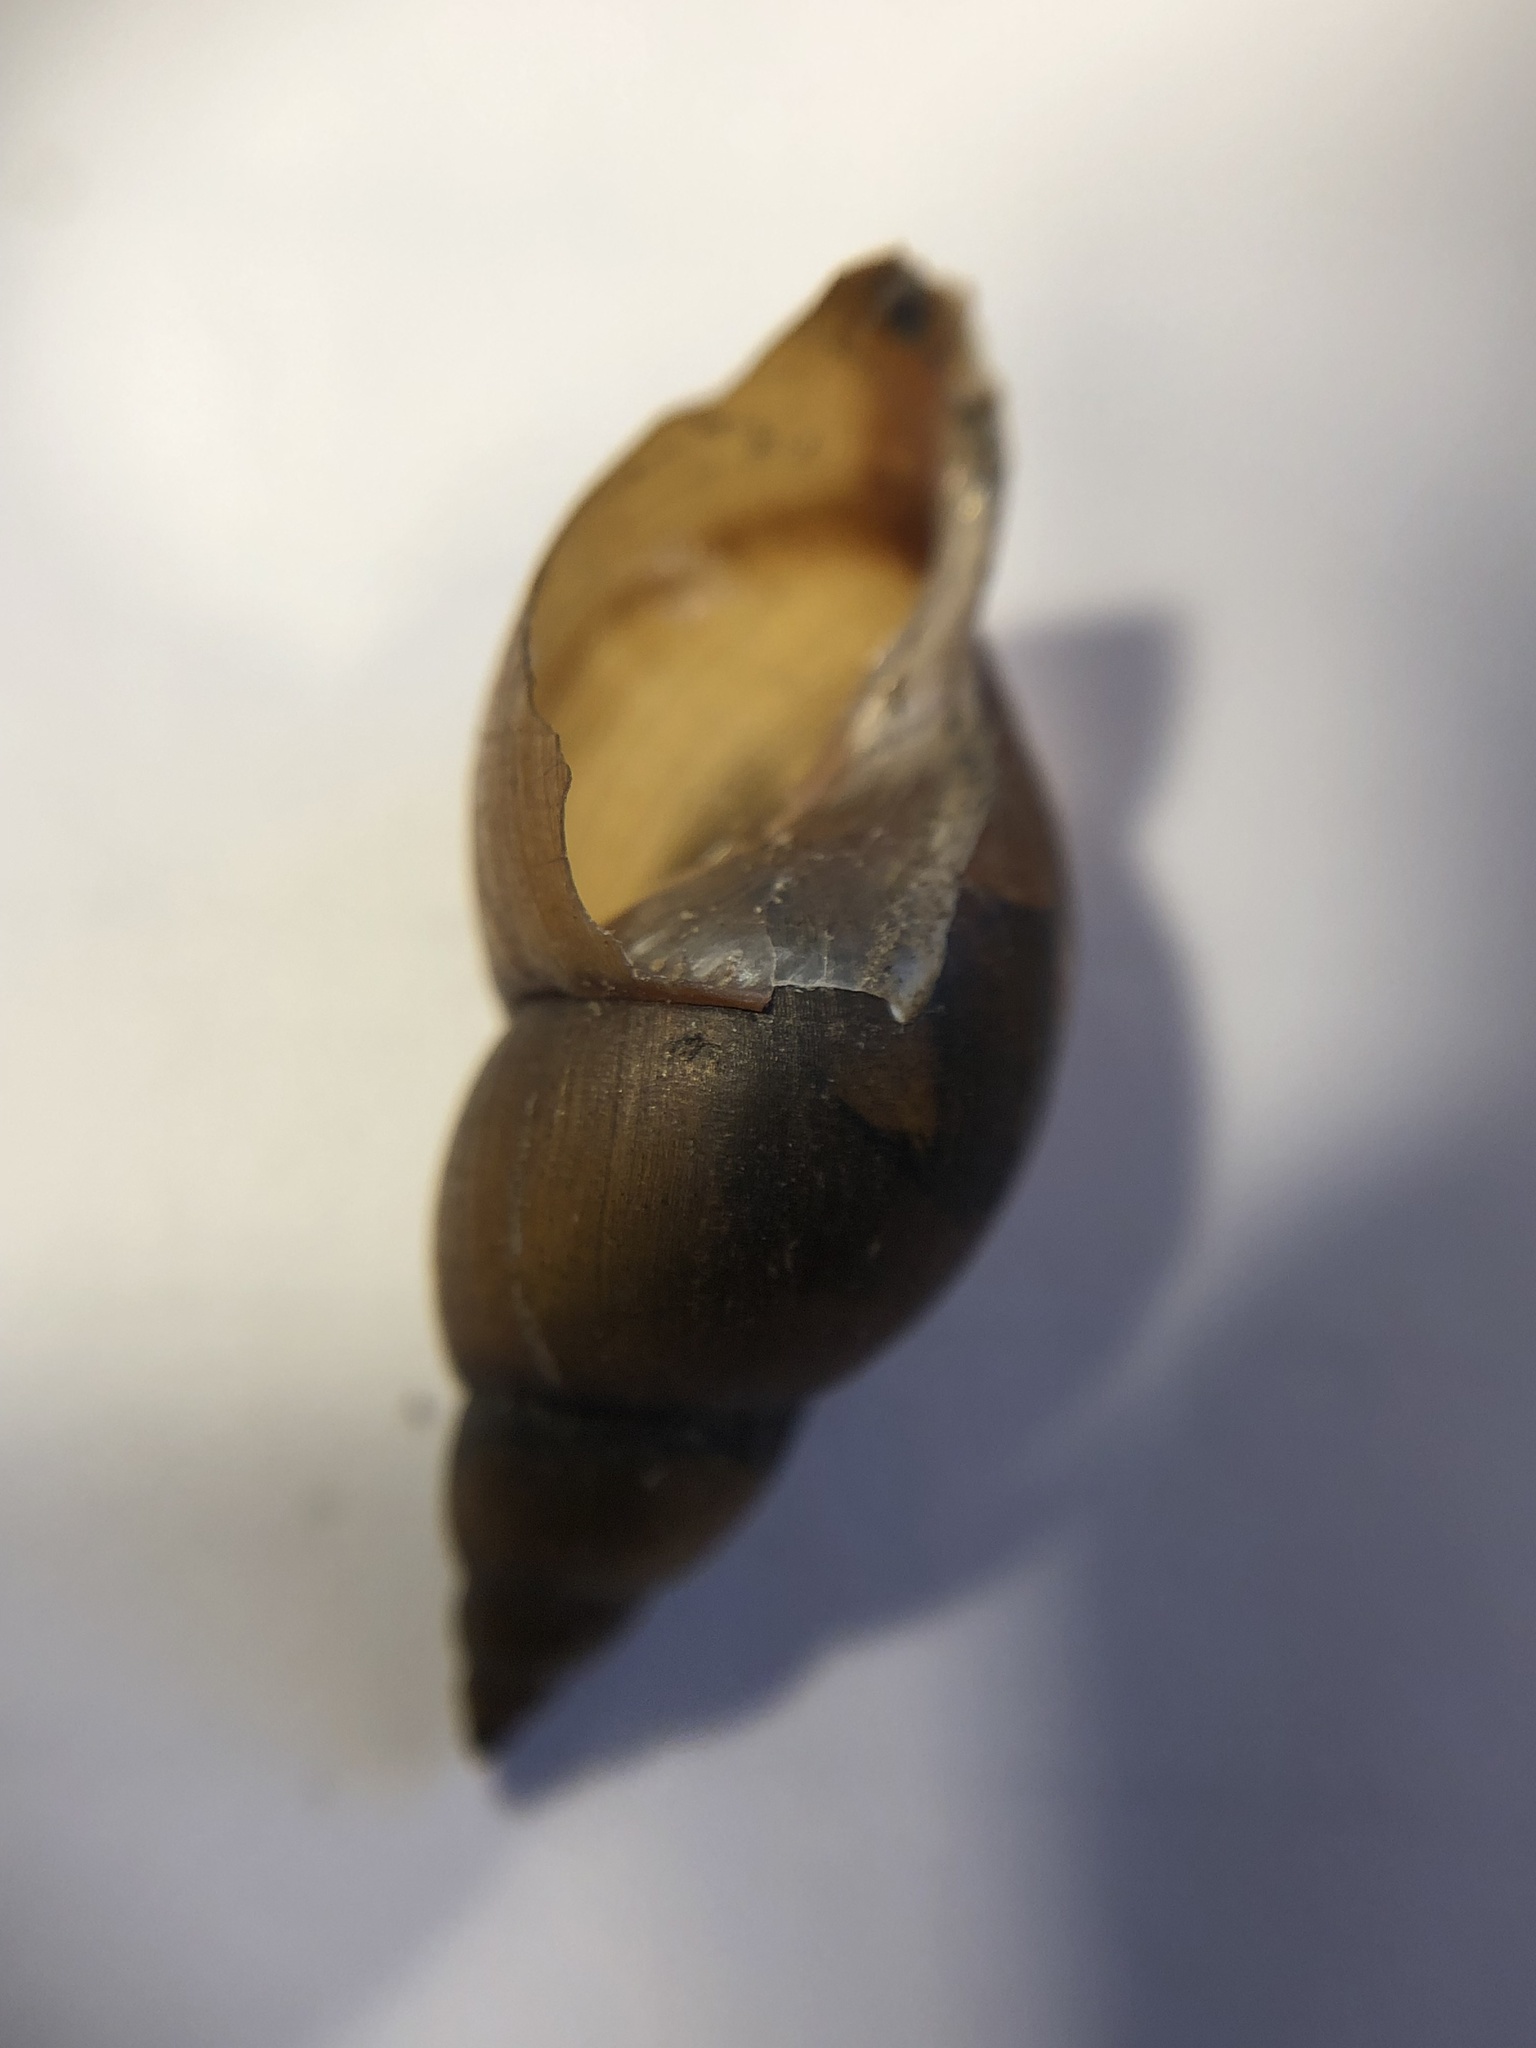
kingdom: Animalia
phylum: Mollusca
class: Gastropoda
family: Lymnaeidae
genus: Ladislavella
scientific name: Ladislavella elodes
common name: Marsh pondsnail
